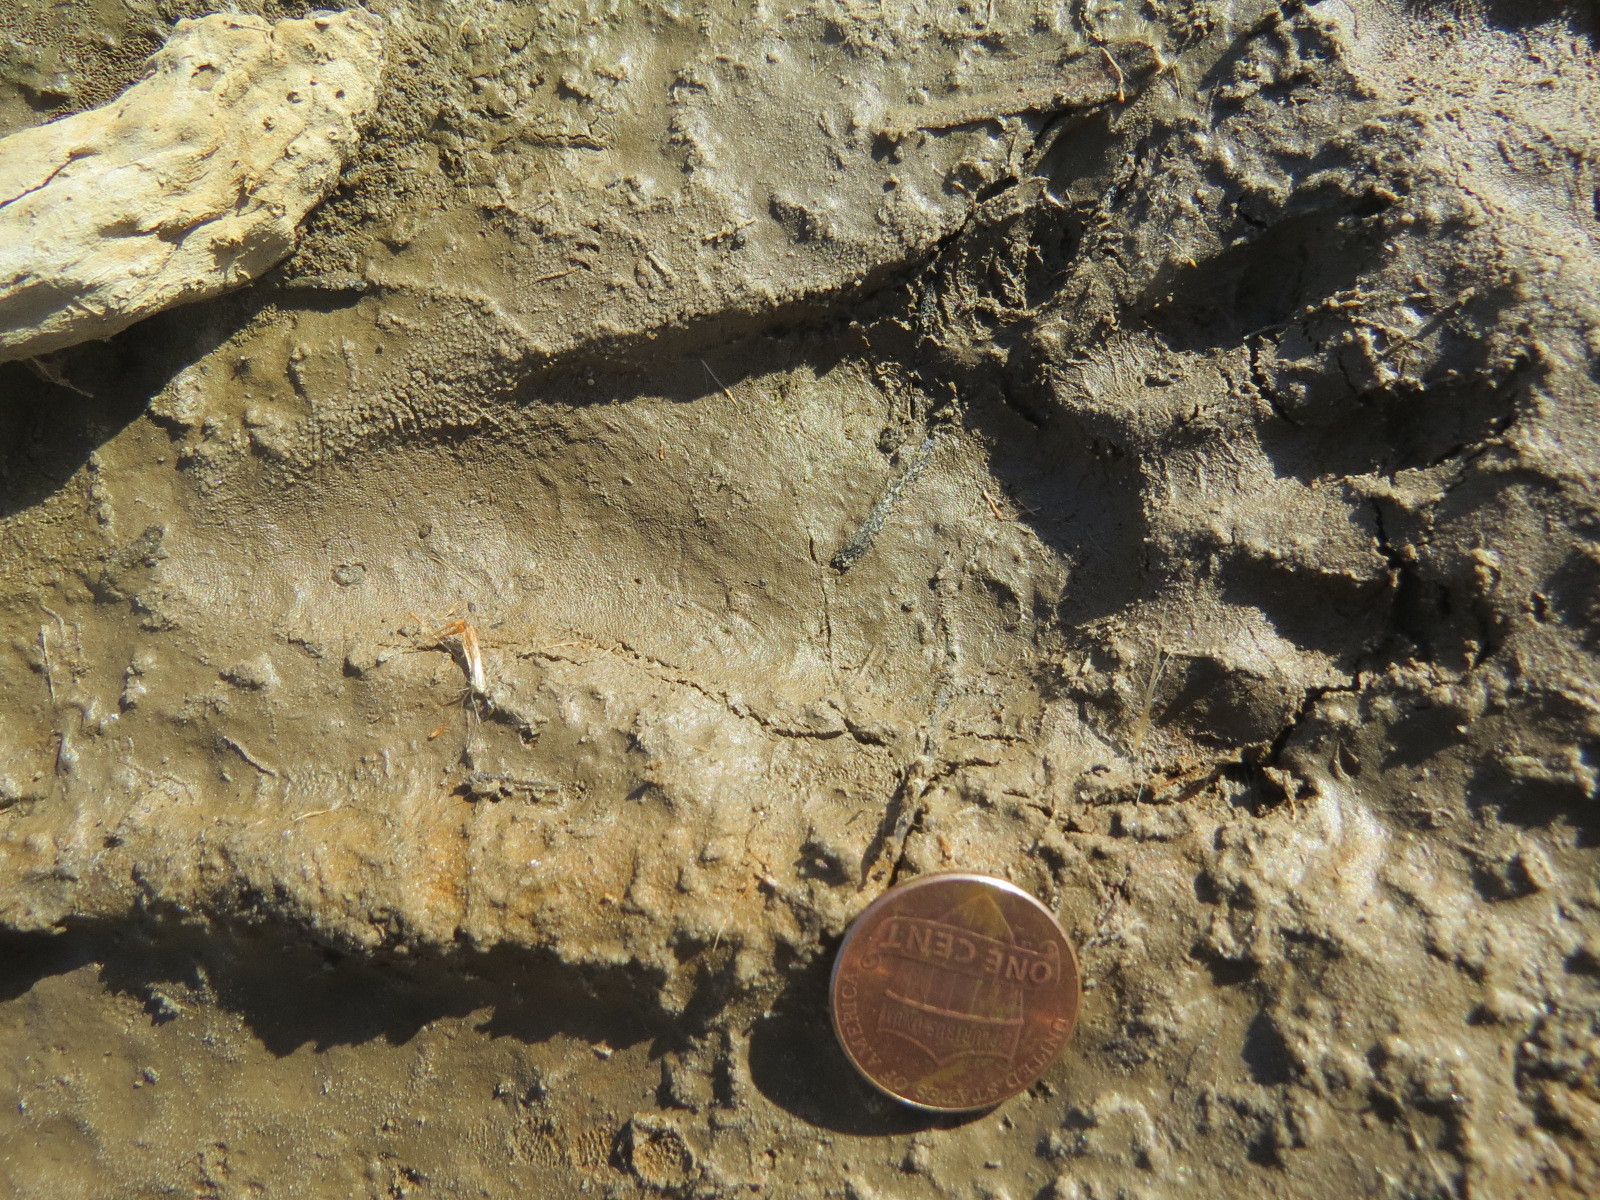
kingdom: Animalia
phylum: Chordata
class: Mammalia
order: Carnivora
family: Procyonidae
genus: Procyon
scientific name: Procyon lotor
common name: Raccoon
